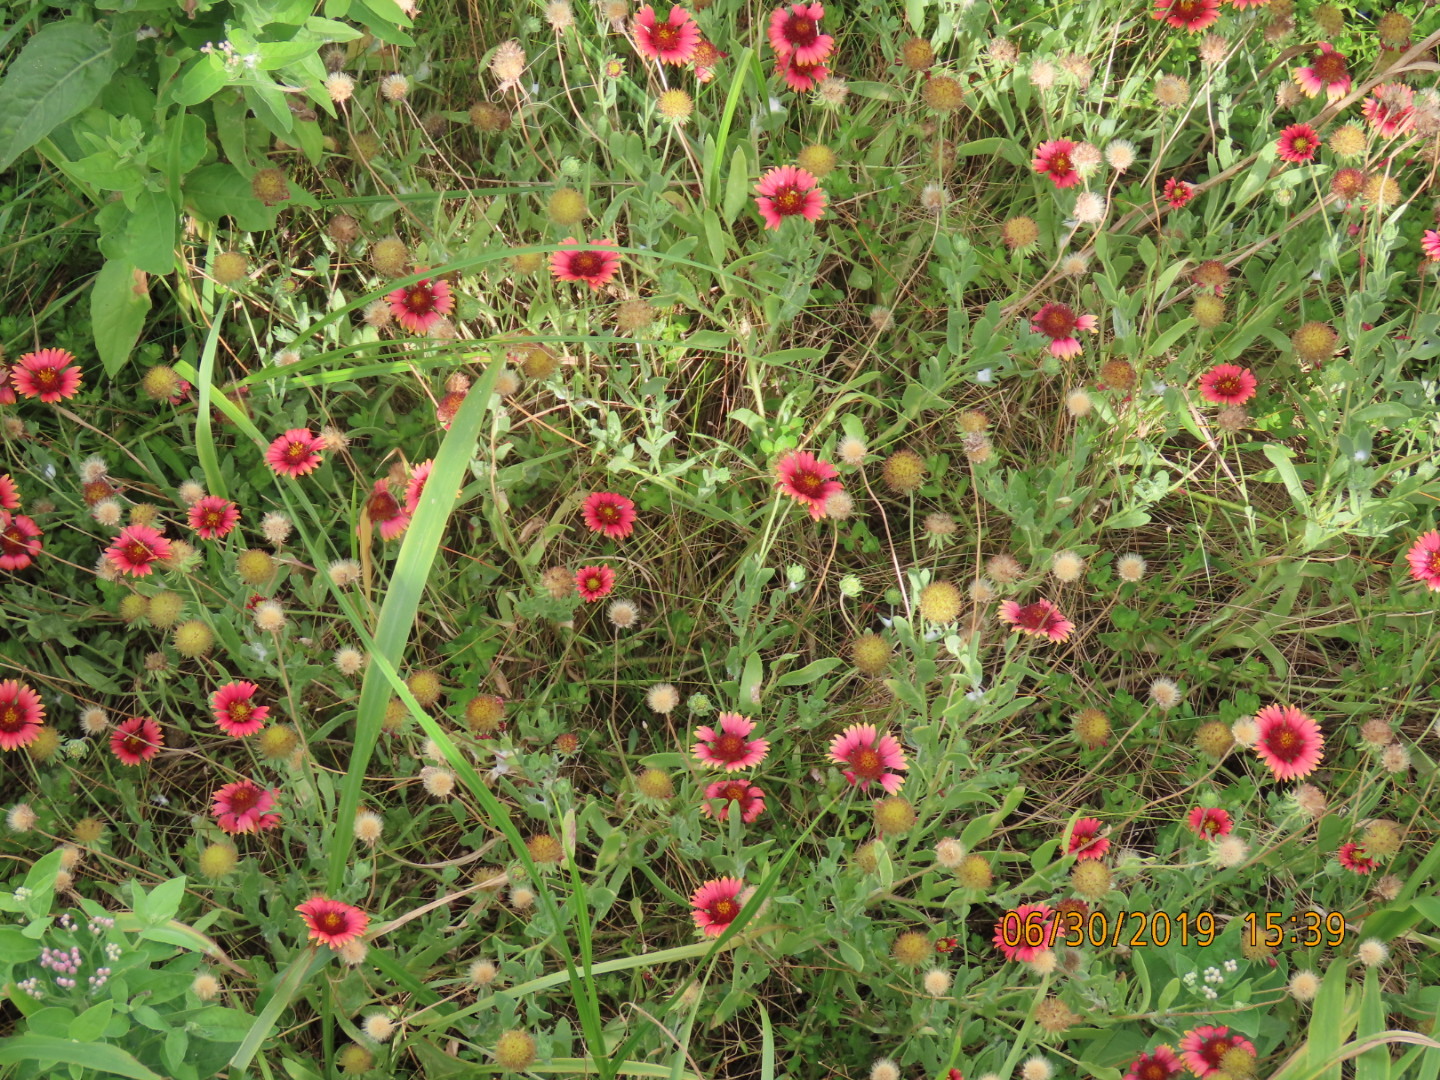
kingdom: Plantae
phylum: Tracheophyta
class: Magnoliopsida
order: Asterales
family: Asteraceae
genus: Gaillardia
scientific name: Gaillardia pulchella
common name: Firewheel
